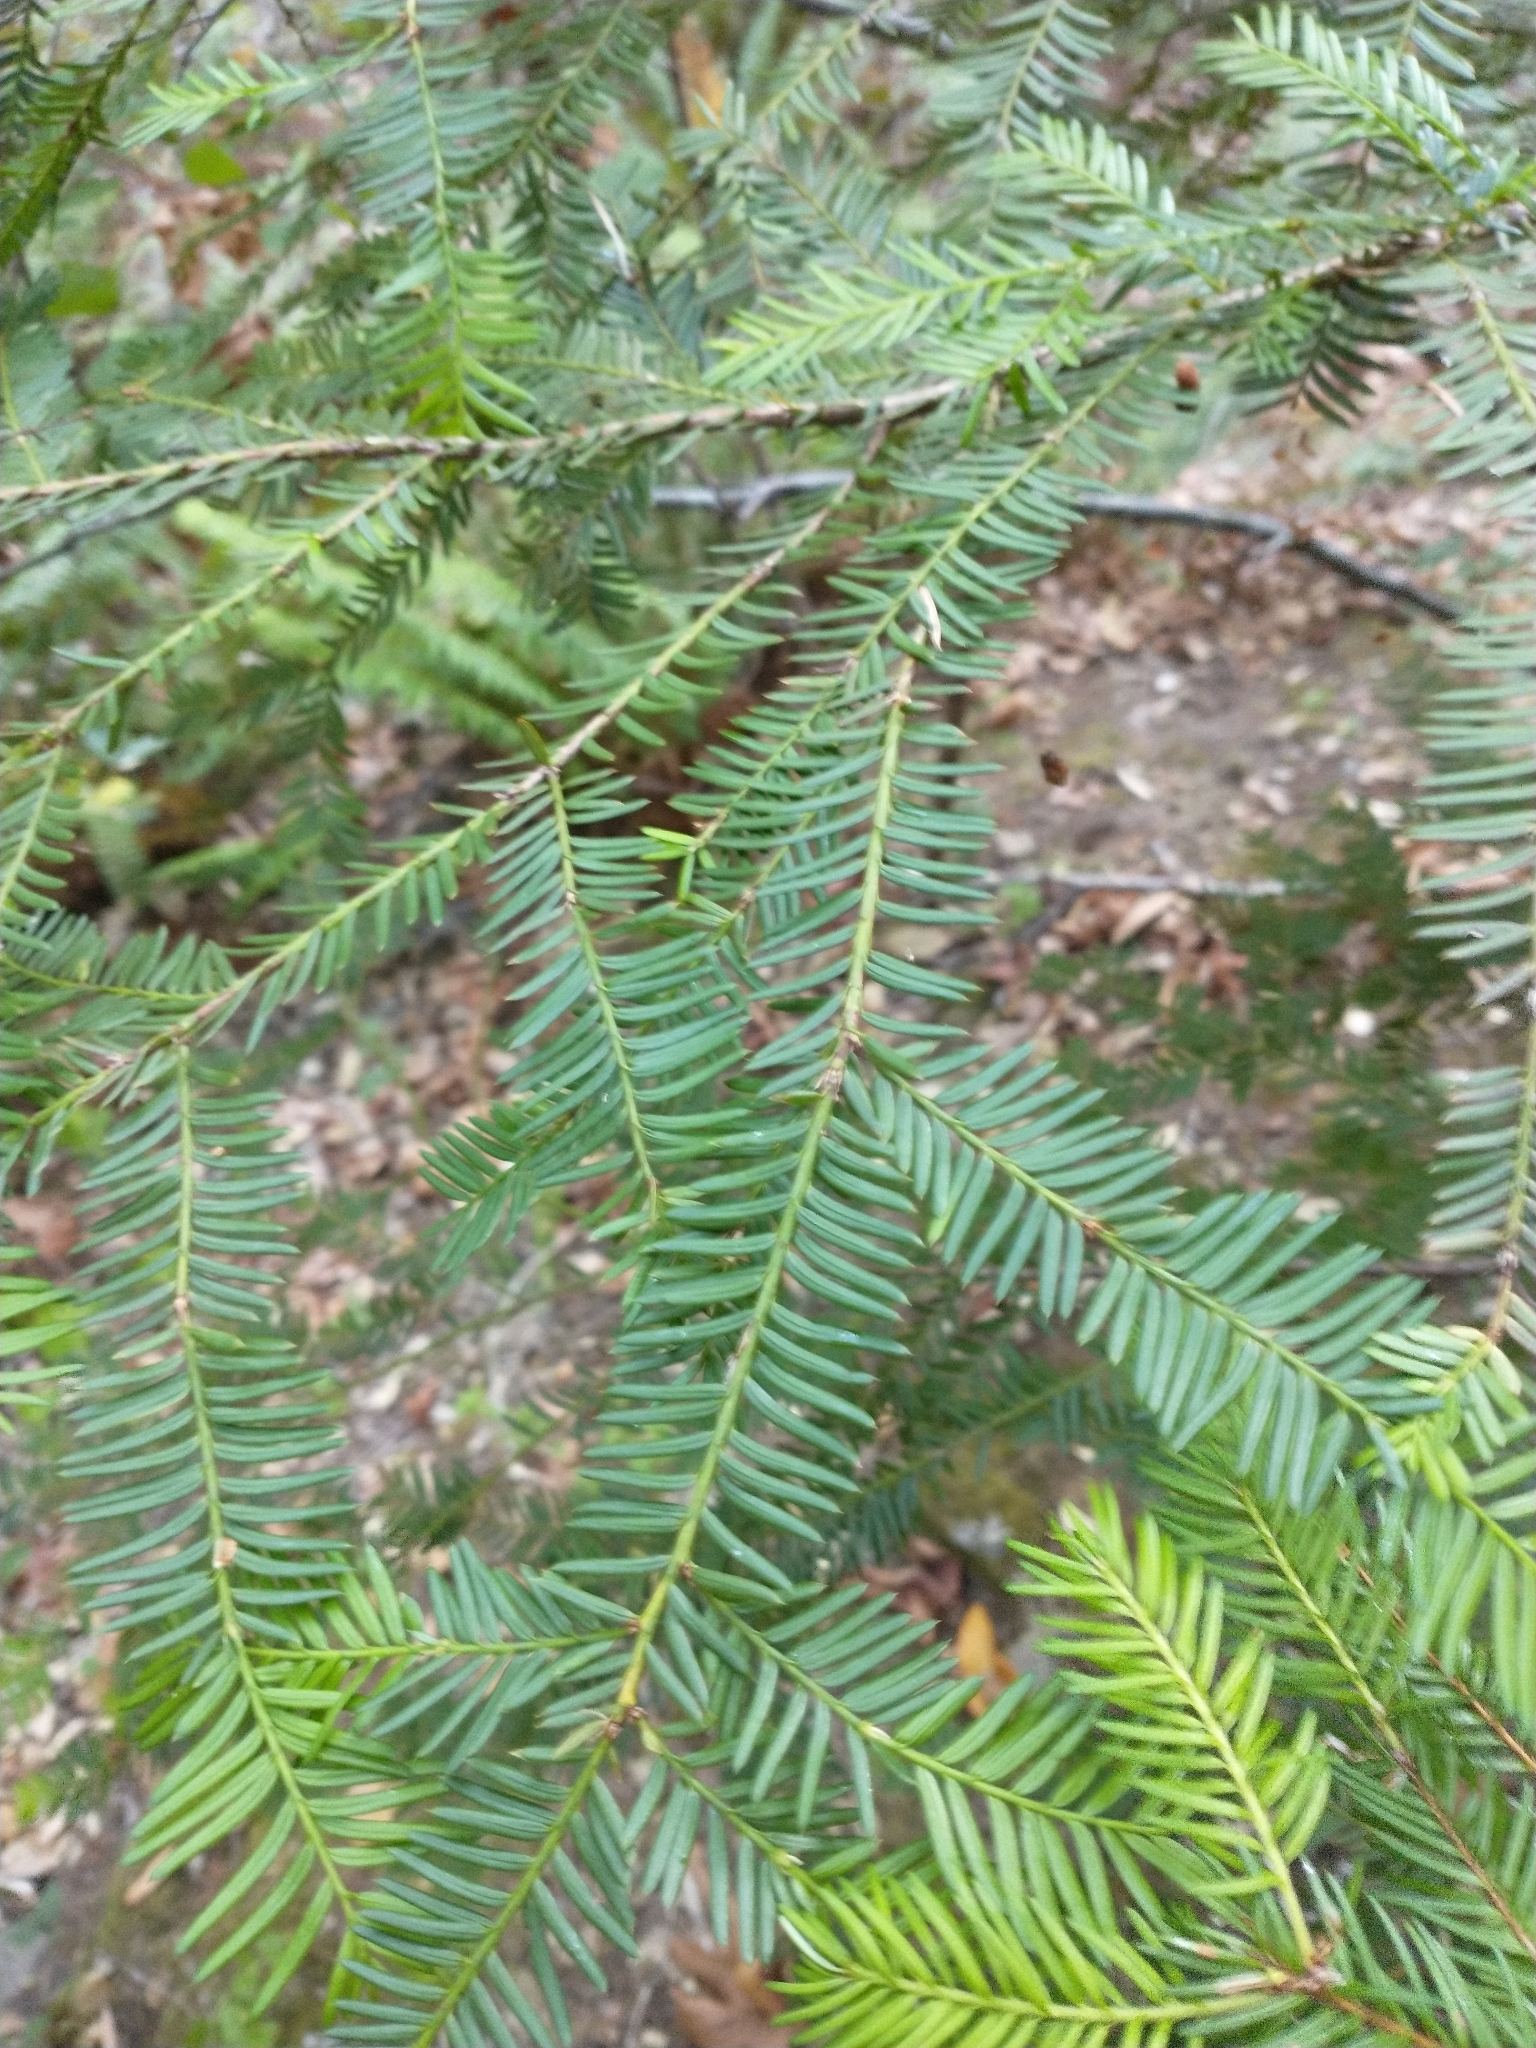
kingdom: Plantae
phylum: Tracheophyta
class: Pinopsida
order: Pinales
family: Taxaceae
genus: Taxus
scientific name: Taxus brevifolia
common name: Pacific yew
